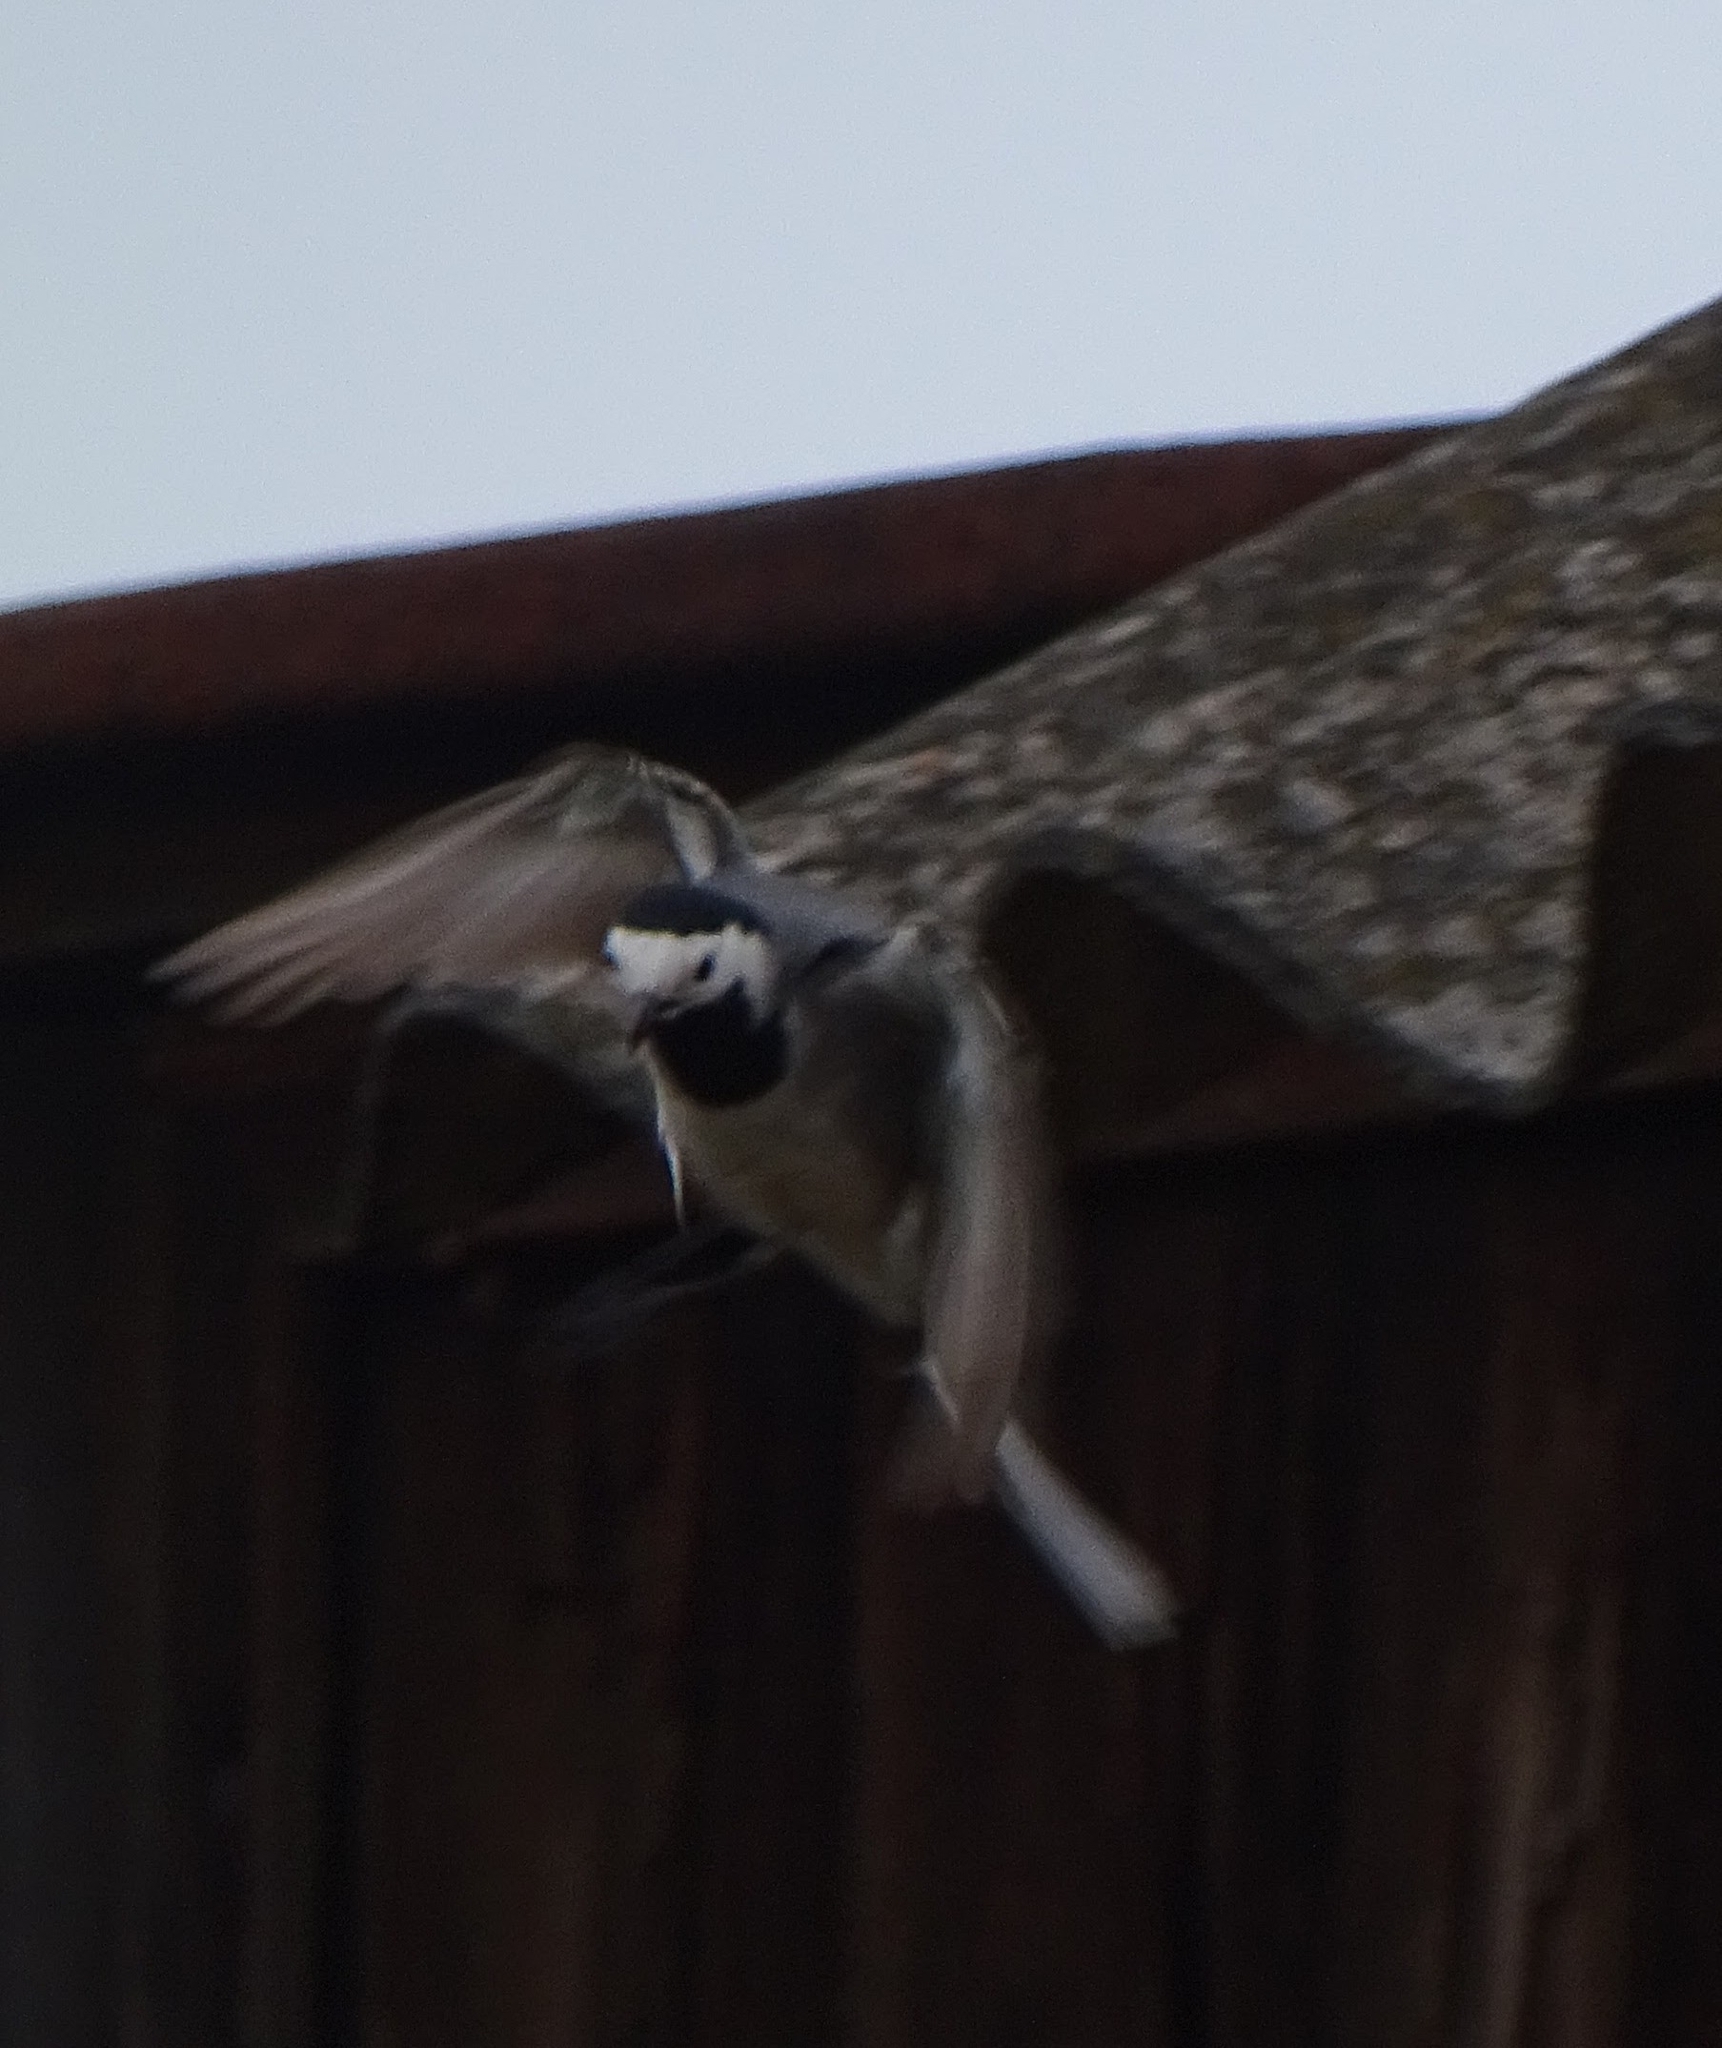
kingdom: Animalia
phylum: Chordata
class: Aves
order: Passeriformes
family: Motacillidae
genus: Motacilla
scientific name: Motacilla alba
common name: White wagtail
